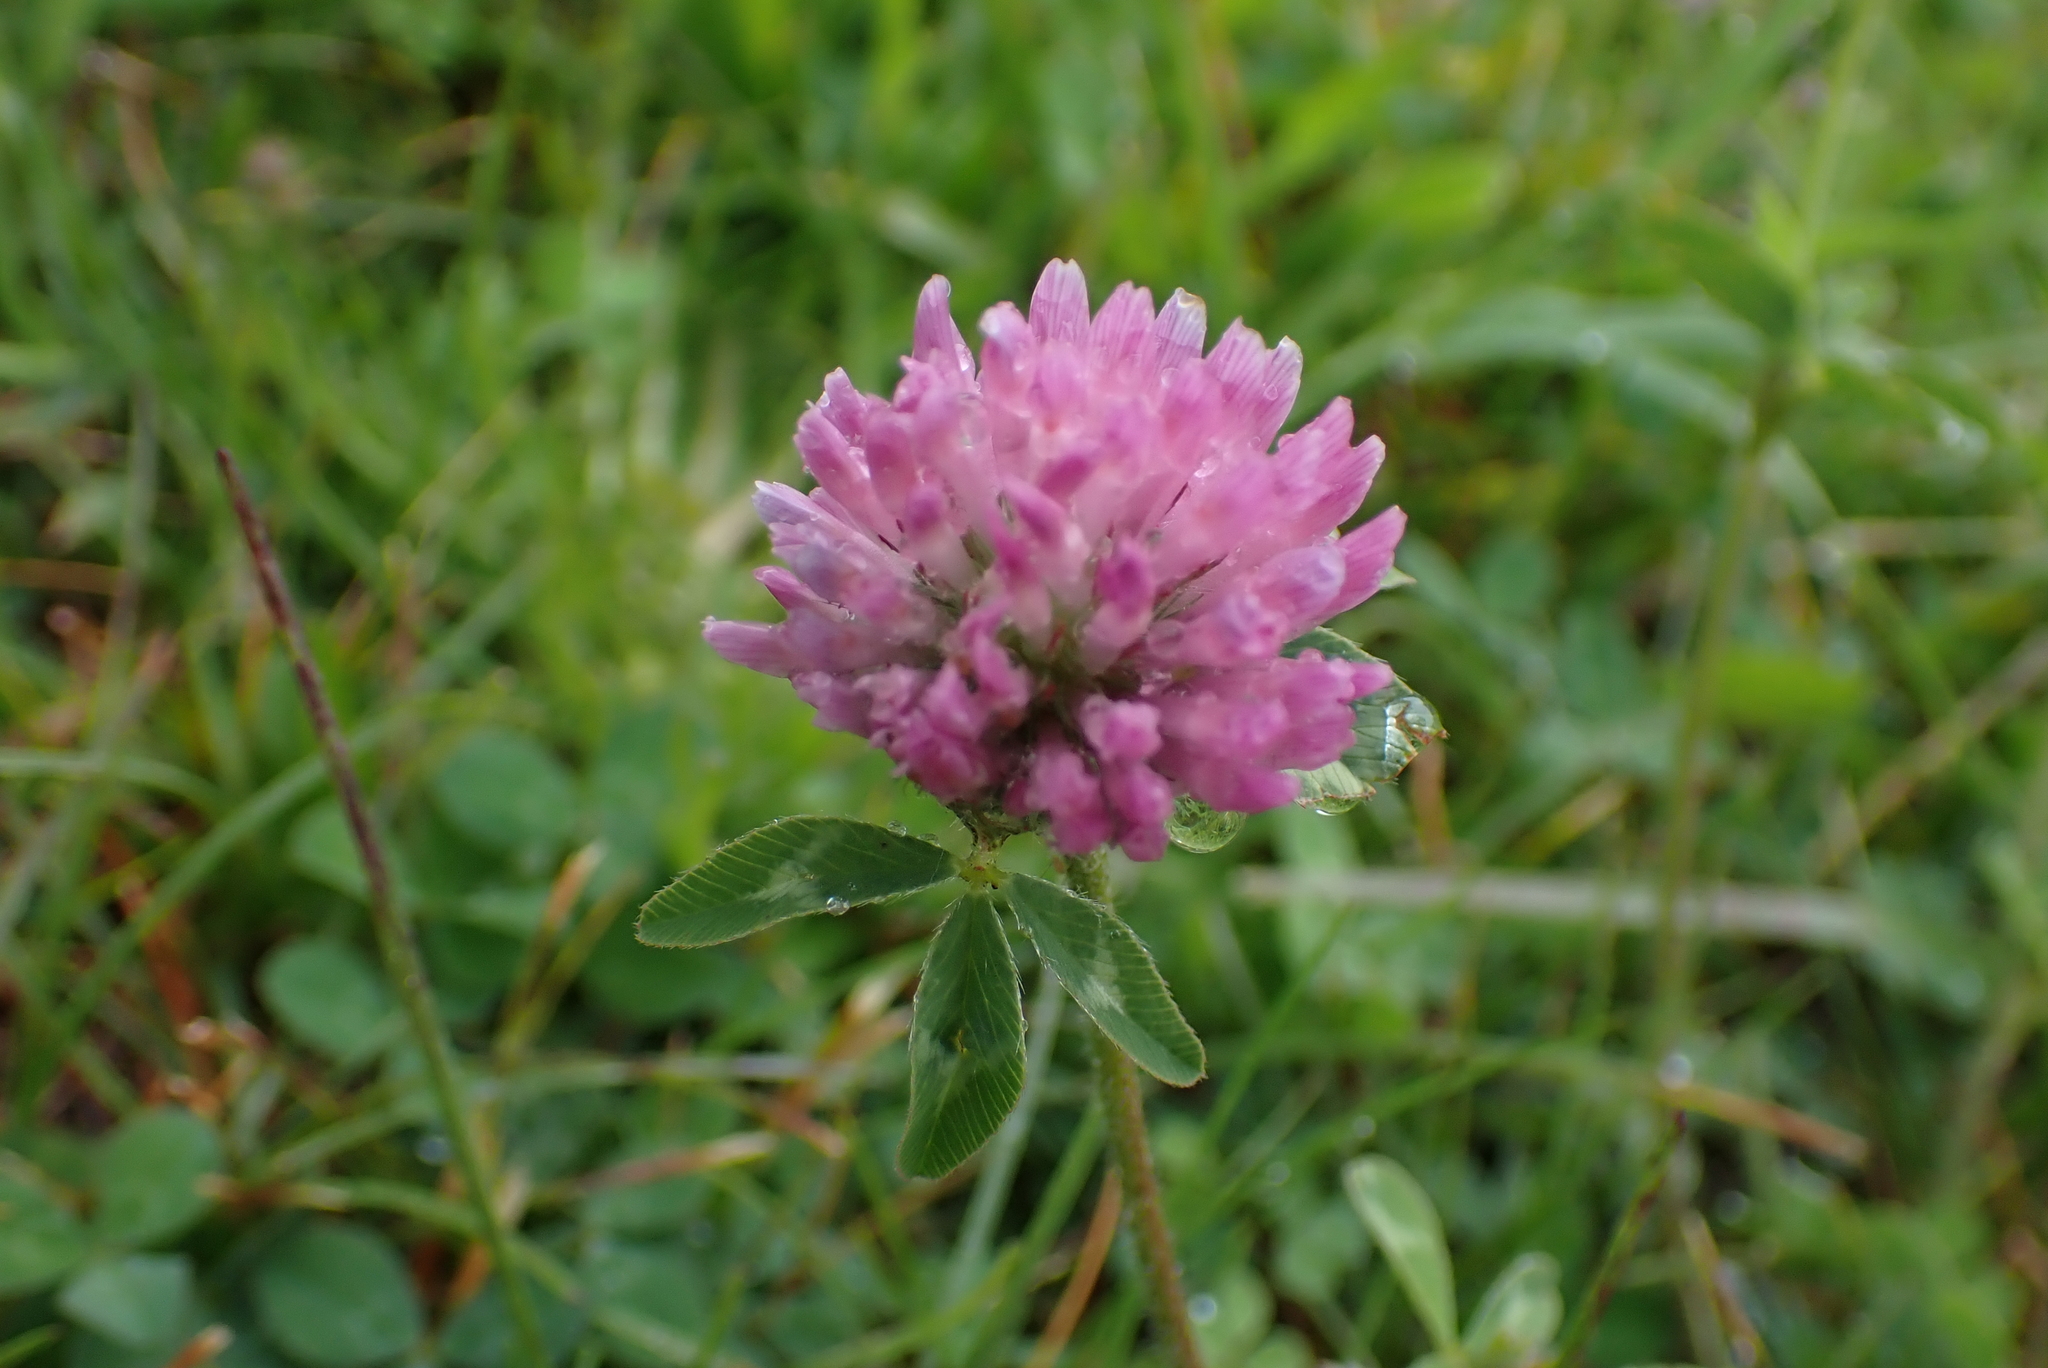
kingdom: Plantae
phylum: Tracheophyta
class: Magnoliopsida
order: Fabales
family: Fabaceae
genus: Trifolium
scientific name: Trifolium pratense
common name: Red clover
